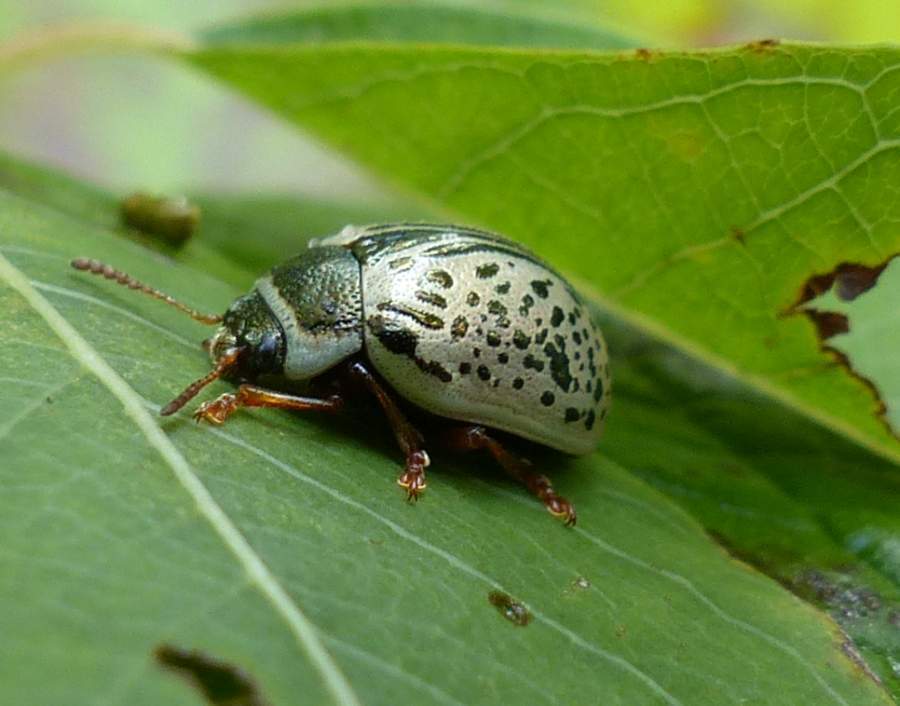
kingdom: Animalia
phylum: Arthropoda
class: Insecta
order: Coleoptera
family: Chrysomelidae
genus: Calligrapha
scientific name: Calligrapha multipunctata
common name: Common willow calligrapher beetle
